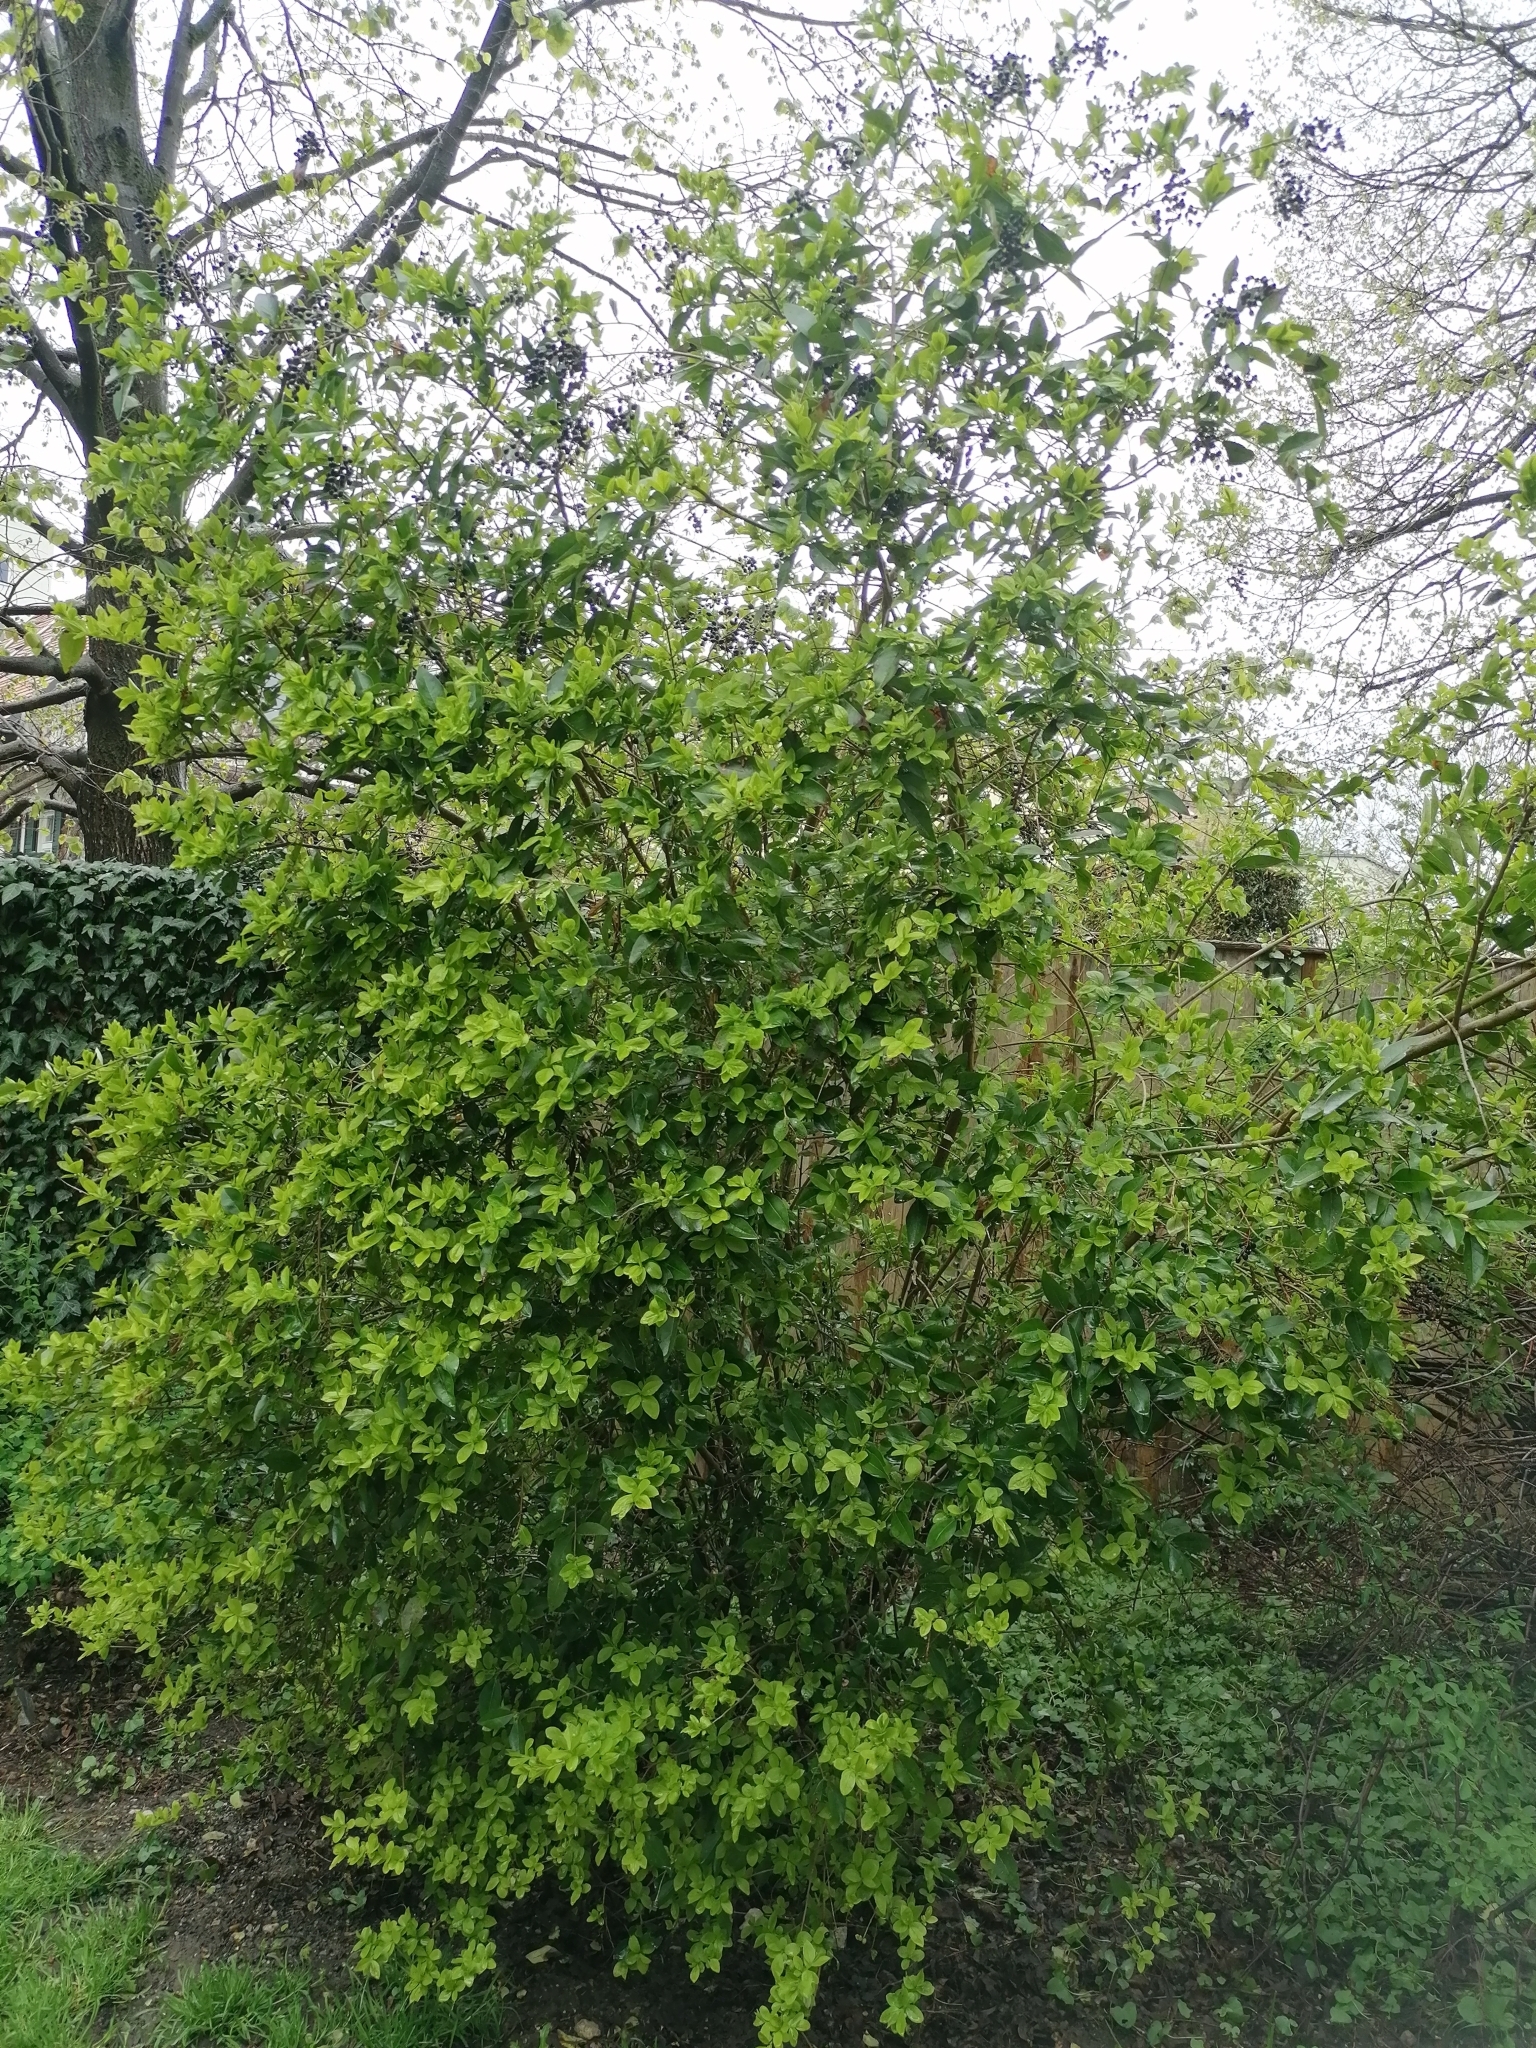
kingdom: Plantae
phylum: Tracheophyta
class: Magnoliopsida
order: Lamiales
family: Oleaceae
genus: Ligustrum
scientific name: Ligustrum vulgare
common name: Wild privet
